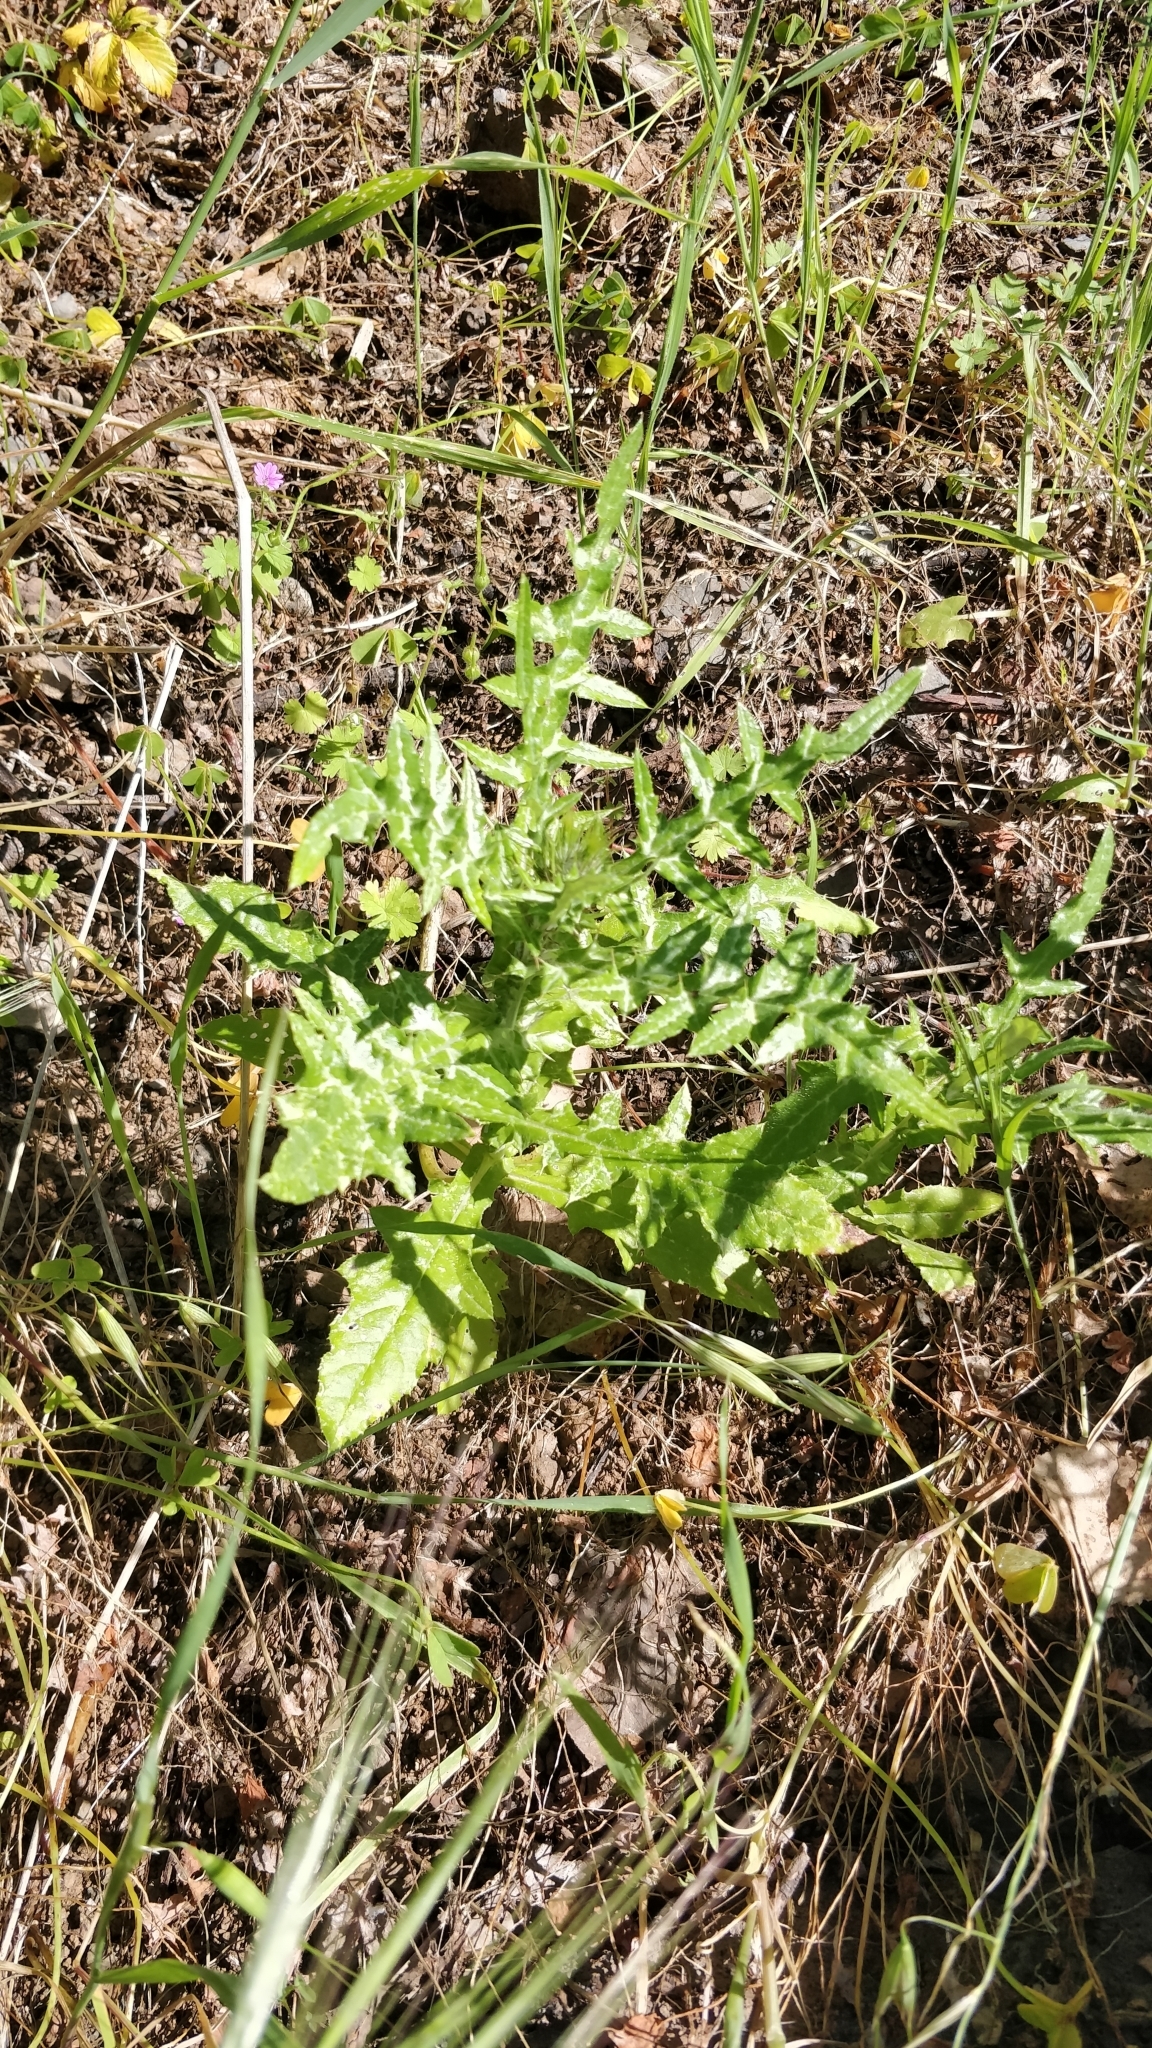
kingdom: Plantae
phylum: Tracheophyta
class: Magnoliopsida
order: Asterales
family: Asteraceae
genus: Galactites
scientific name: Galactites tomentosa
